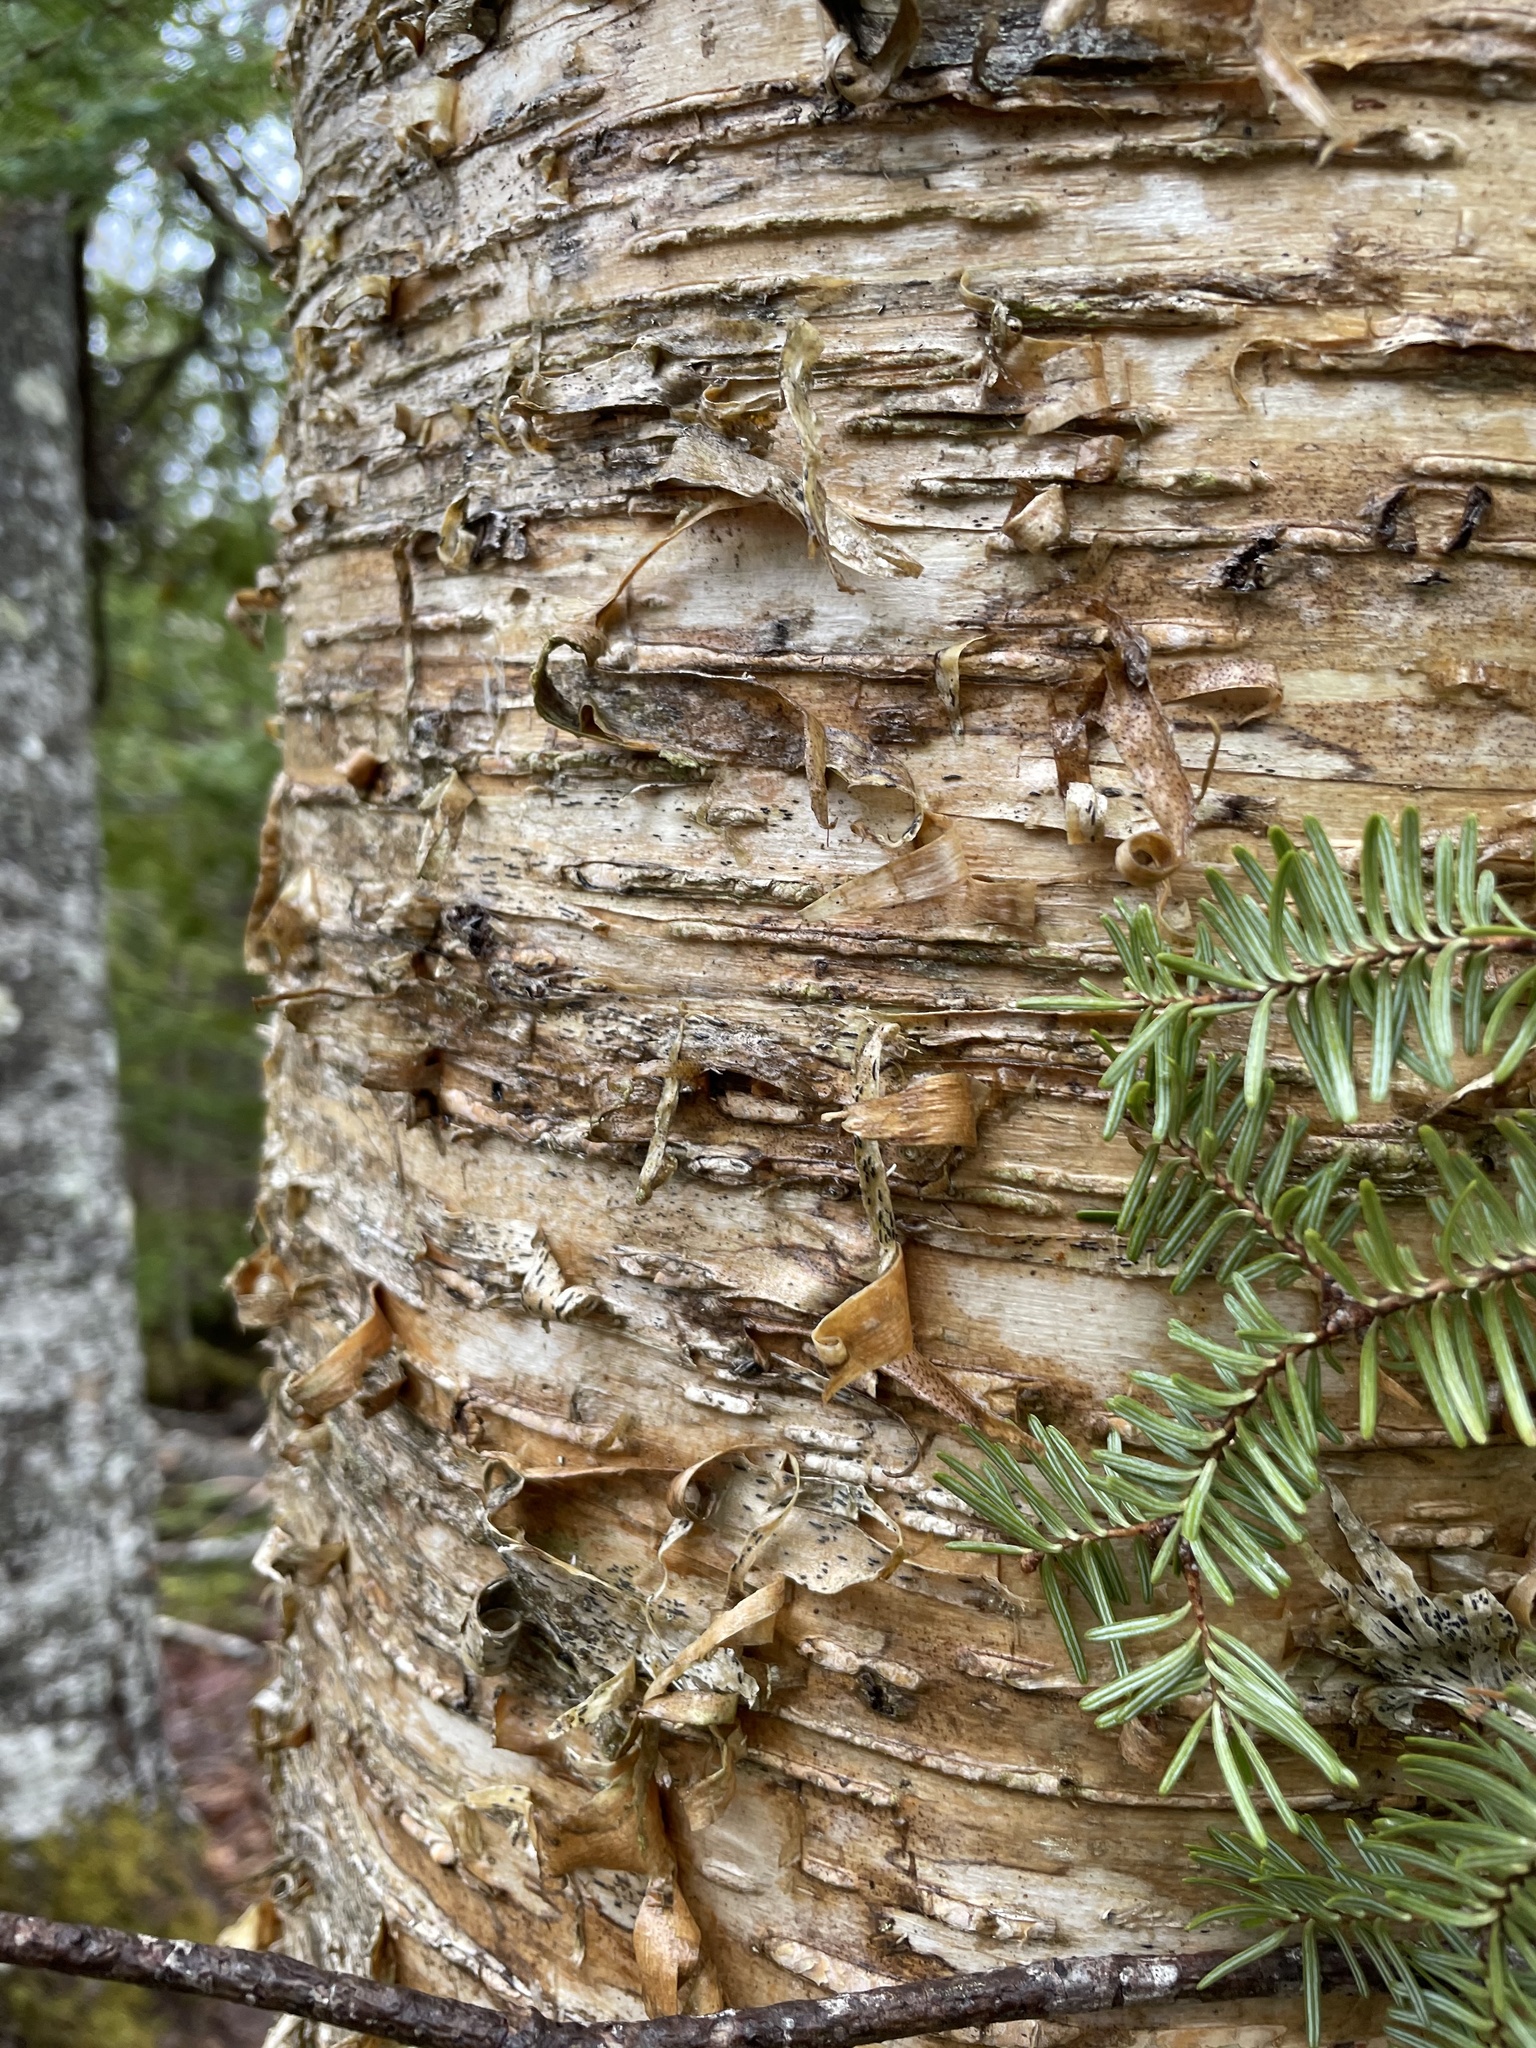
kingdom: Plantae
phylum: Tracheophyta
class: Magnoliopsida
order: Fagales
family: Betulaceae
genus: Betula
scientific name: Betula alleghaniensis
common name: Yellow birch
